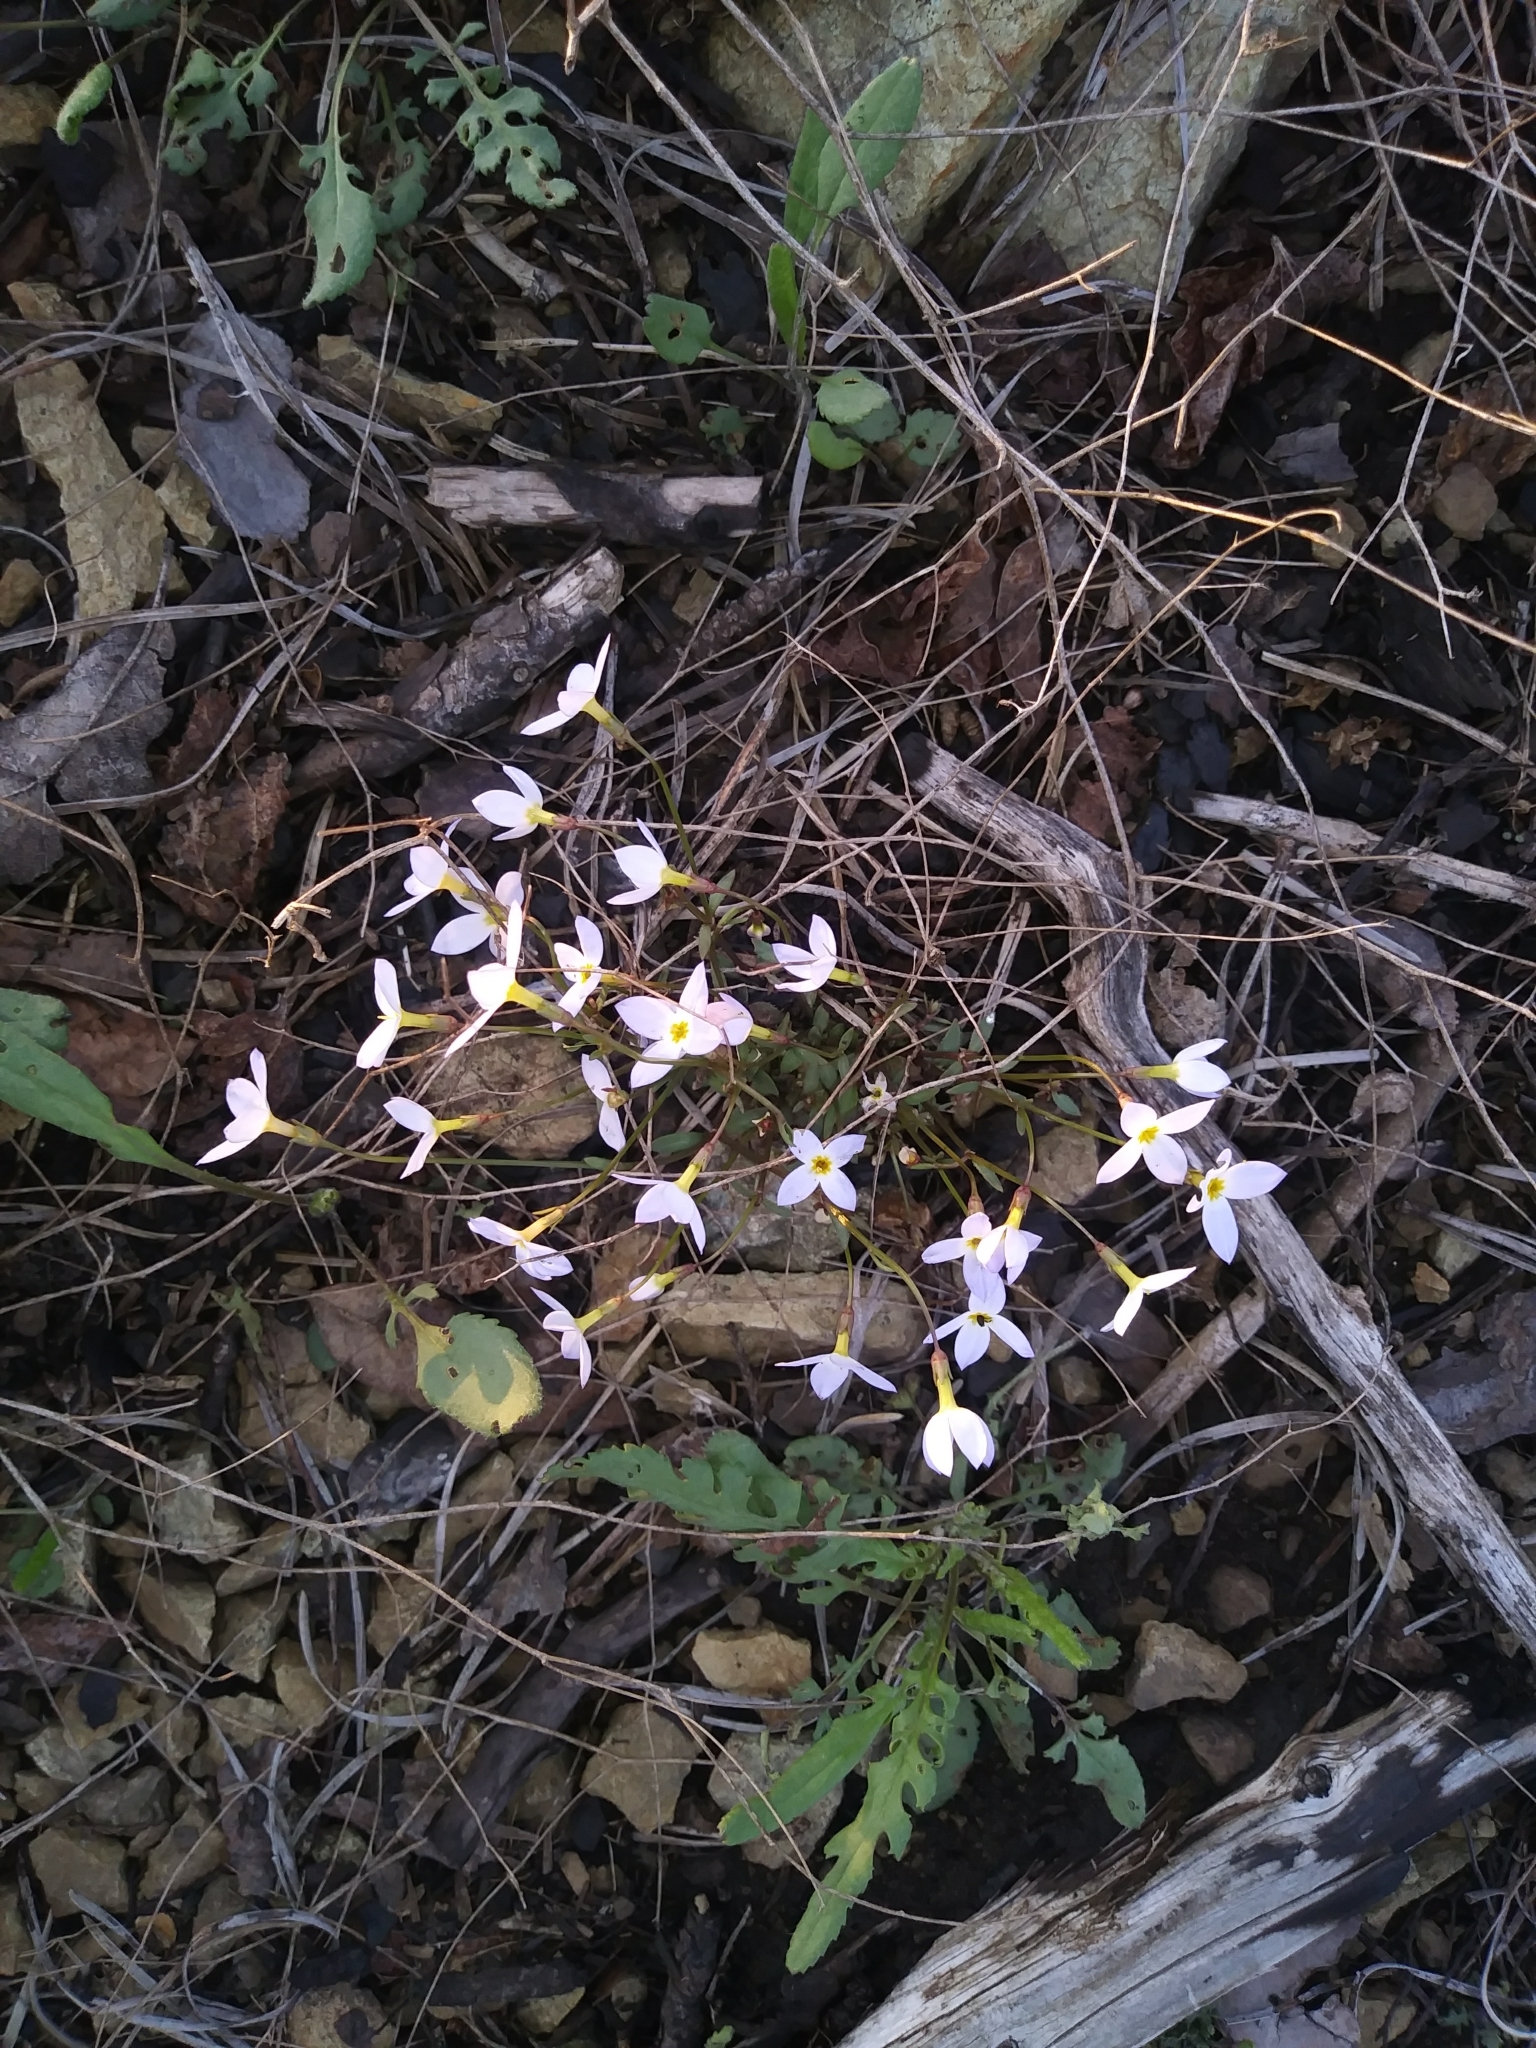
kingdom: Plantae
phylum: Tracheophyta
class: Magnoliopsida
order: Gentianales
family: Rubiaceae
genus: Houstonia
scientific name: Houstonia caerulea
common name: Bluets
